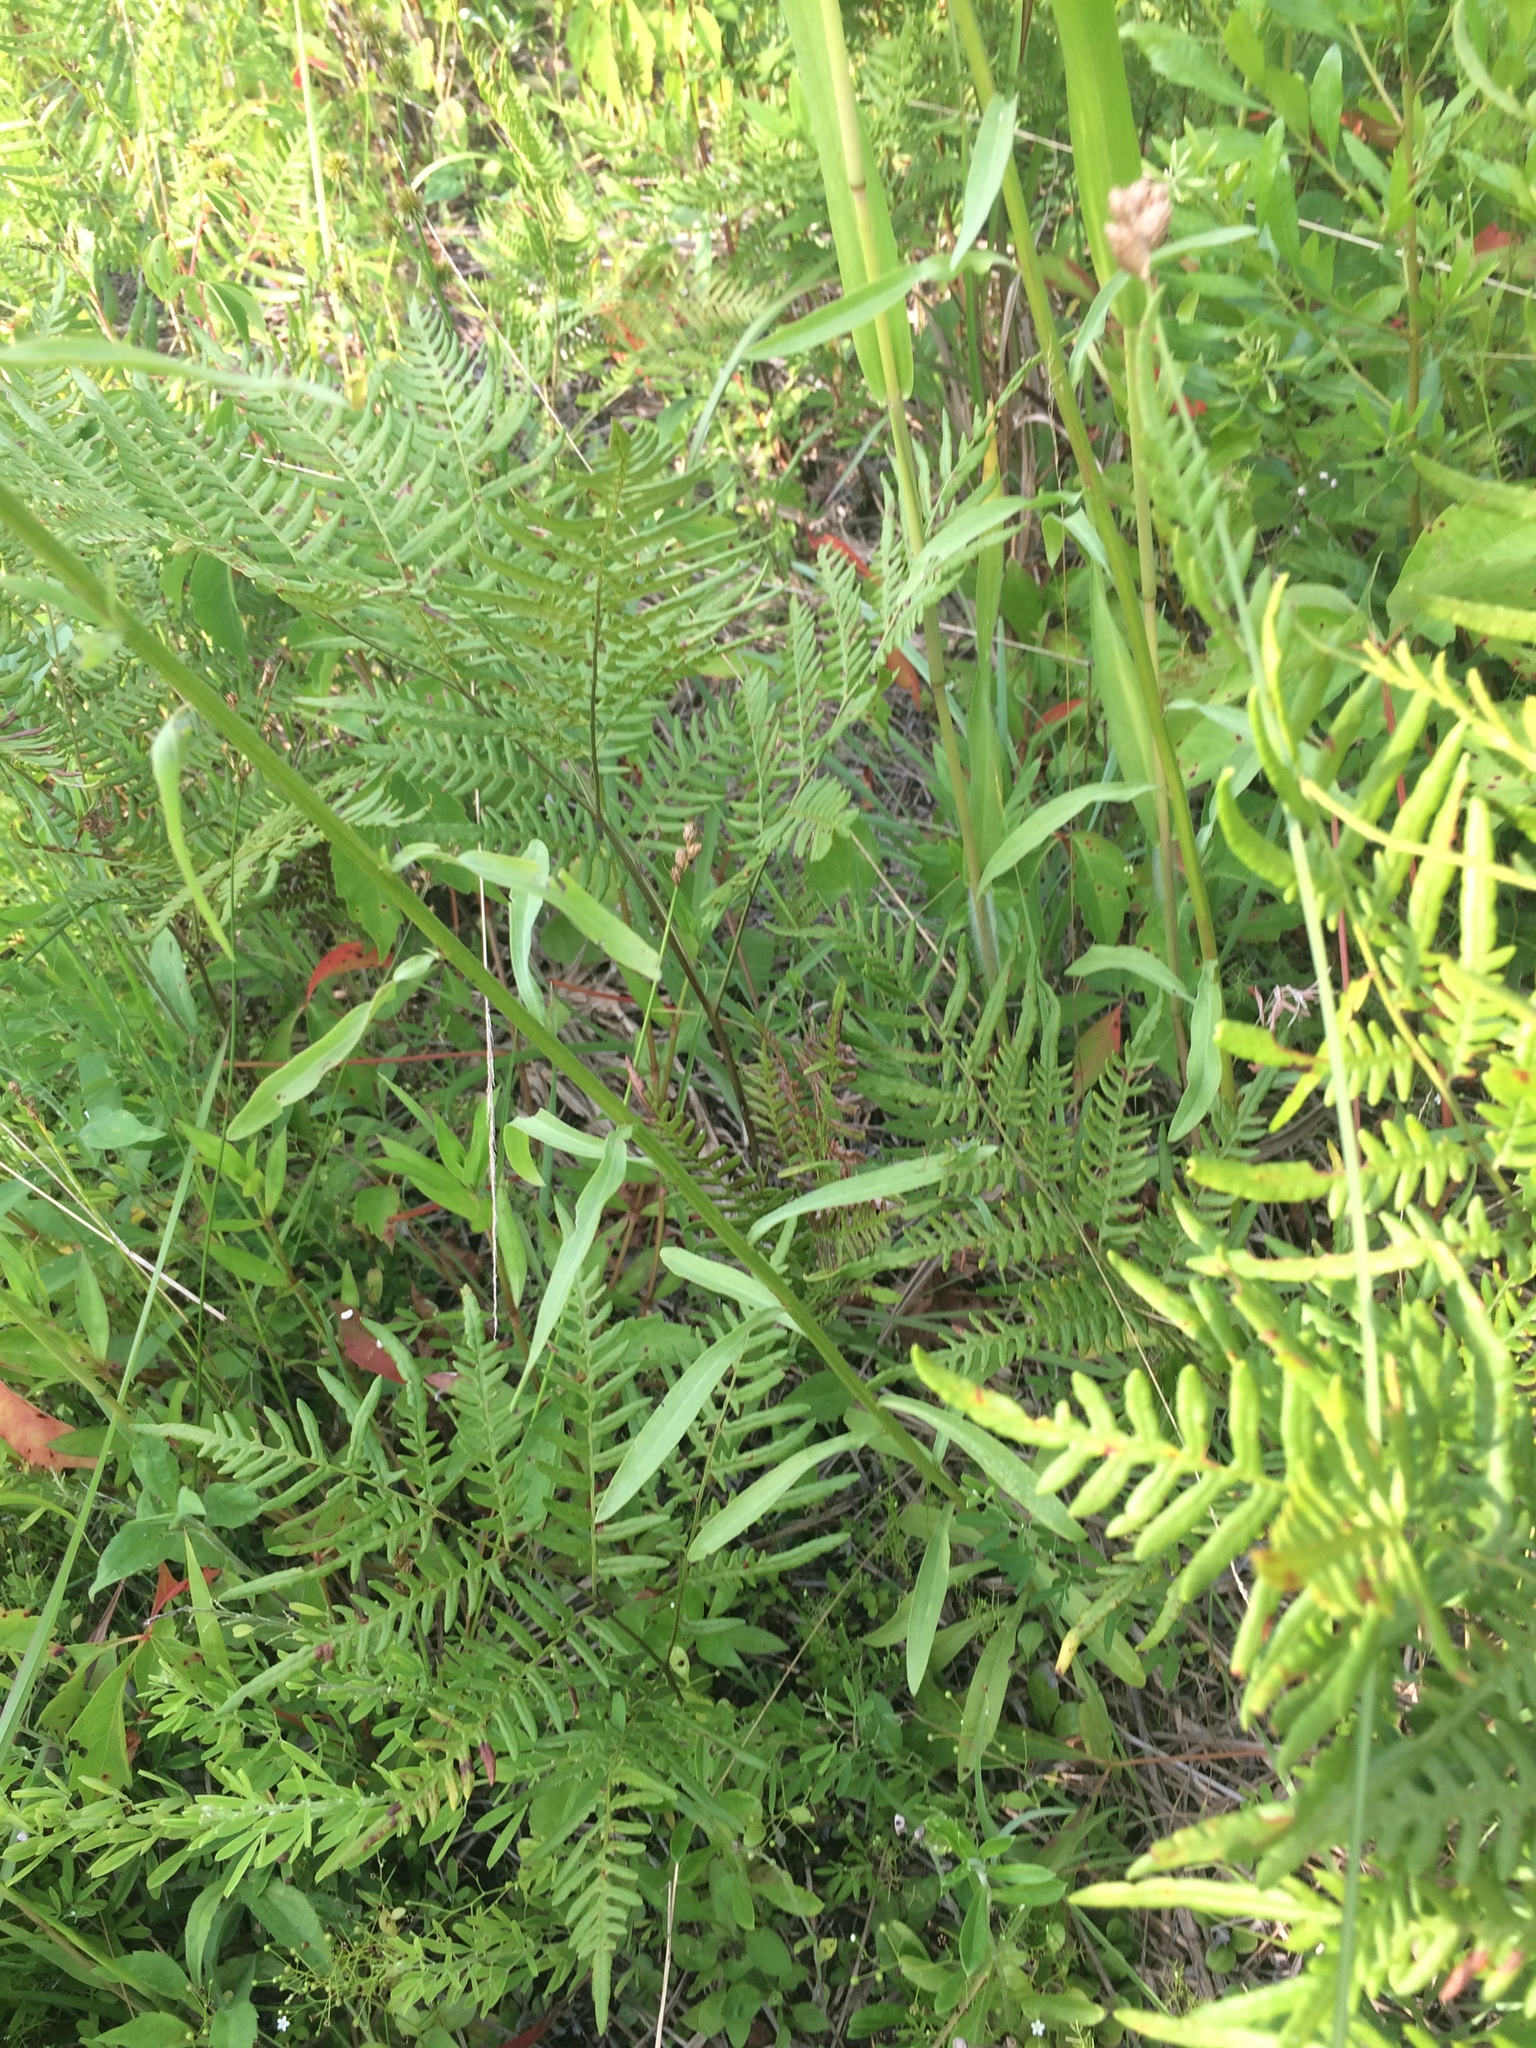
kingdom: Plantae
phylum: Tracheophyta
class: Magnoliopsida
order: Asterales
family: Asteraceae
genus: Erigeron
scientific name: Erigeron strigosus
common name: Common eastern fleabane
